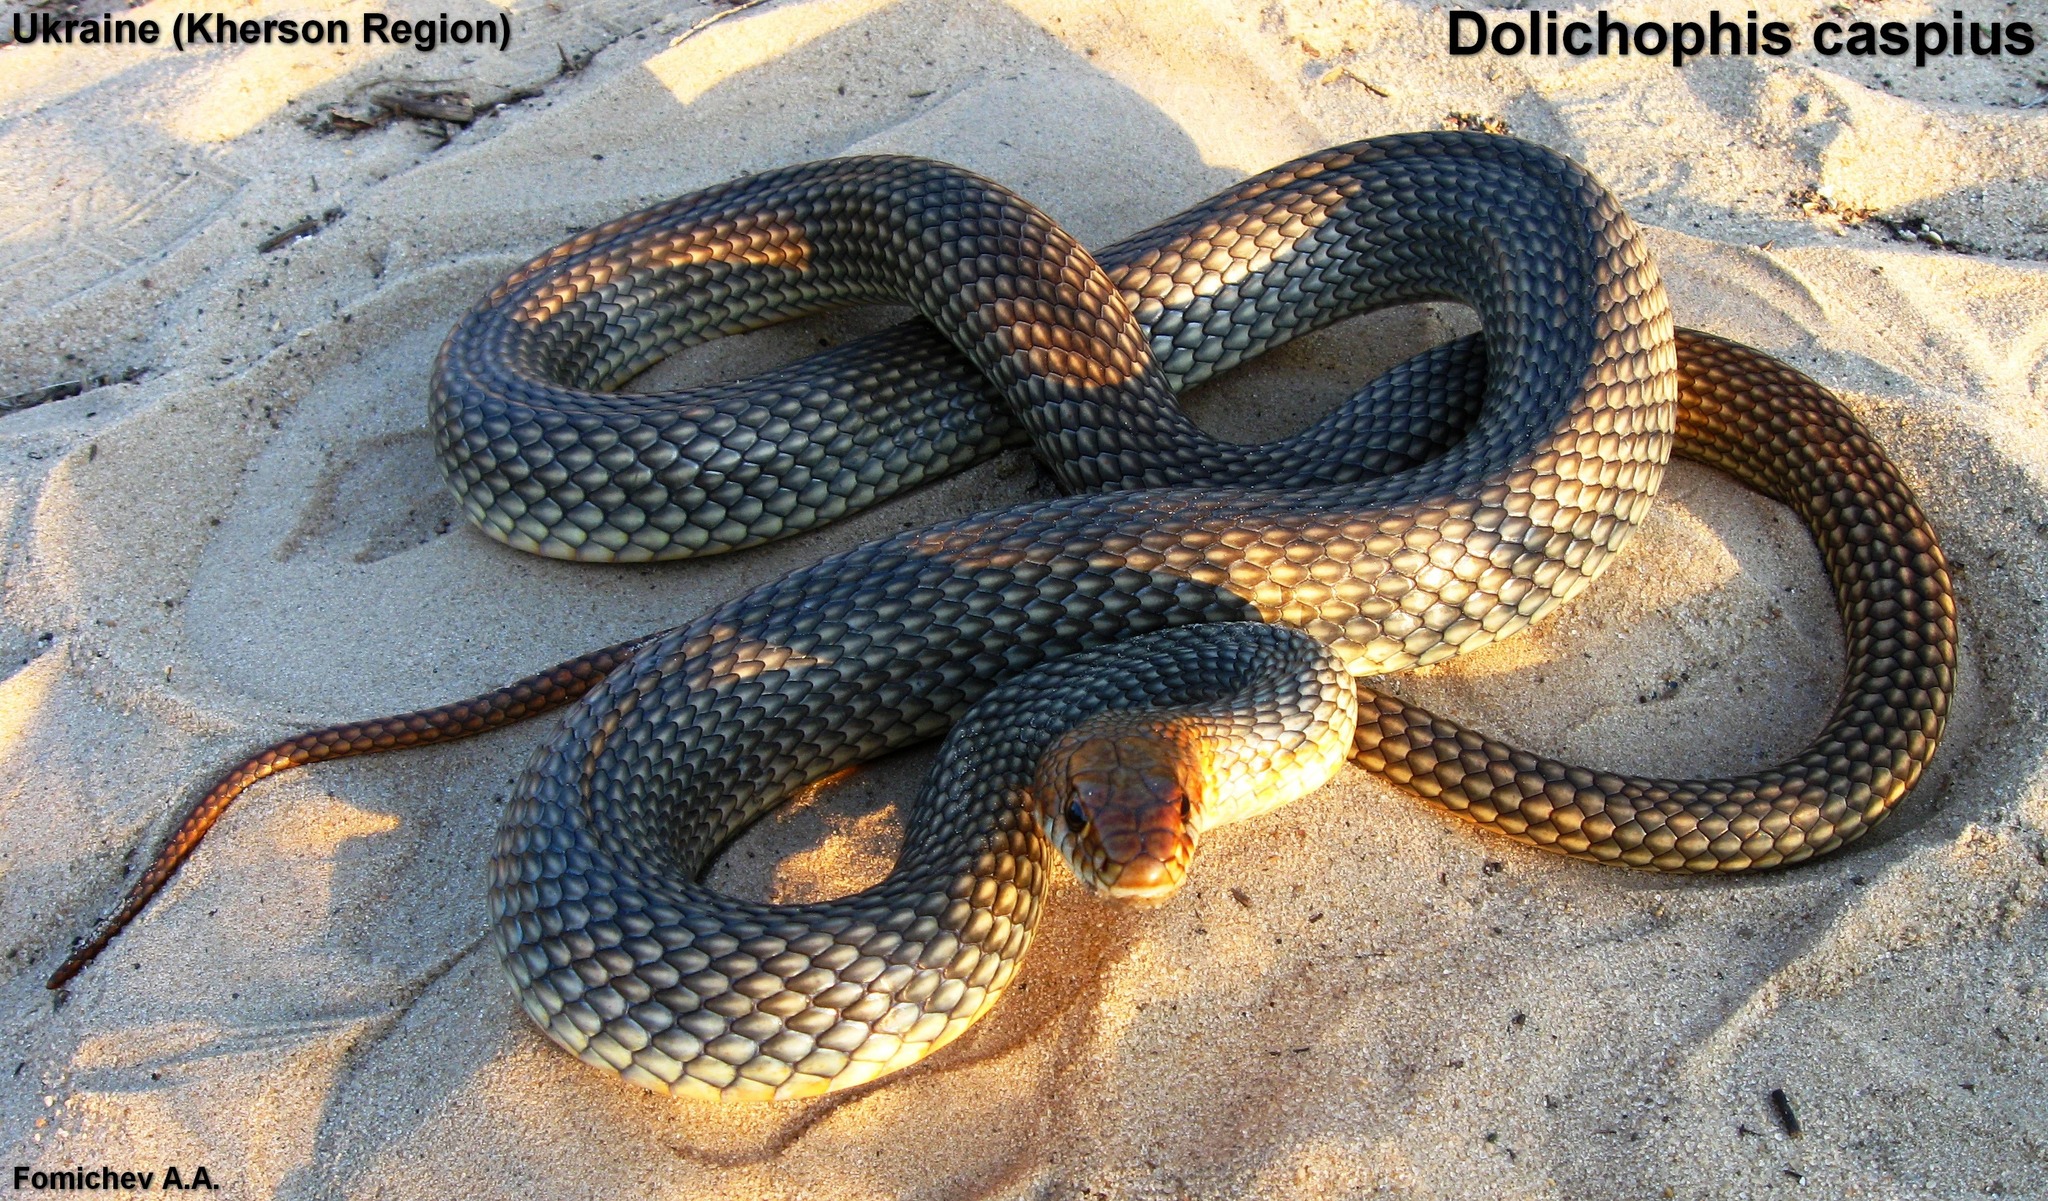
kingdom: Animalia
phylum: Chordata
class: Squamata
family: Colubridae
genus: Dolichophis
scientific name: Dolichophis caspius
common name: Large whip snake
